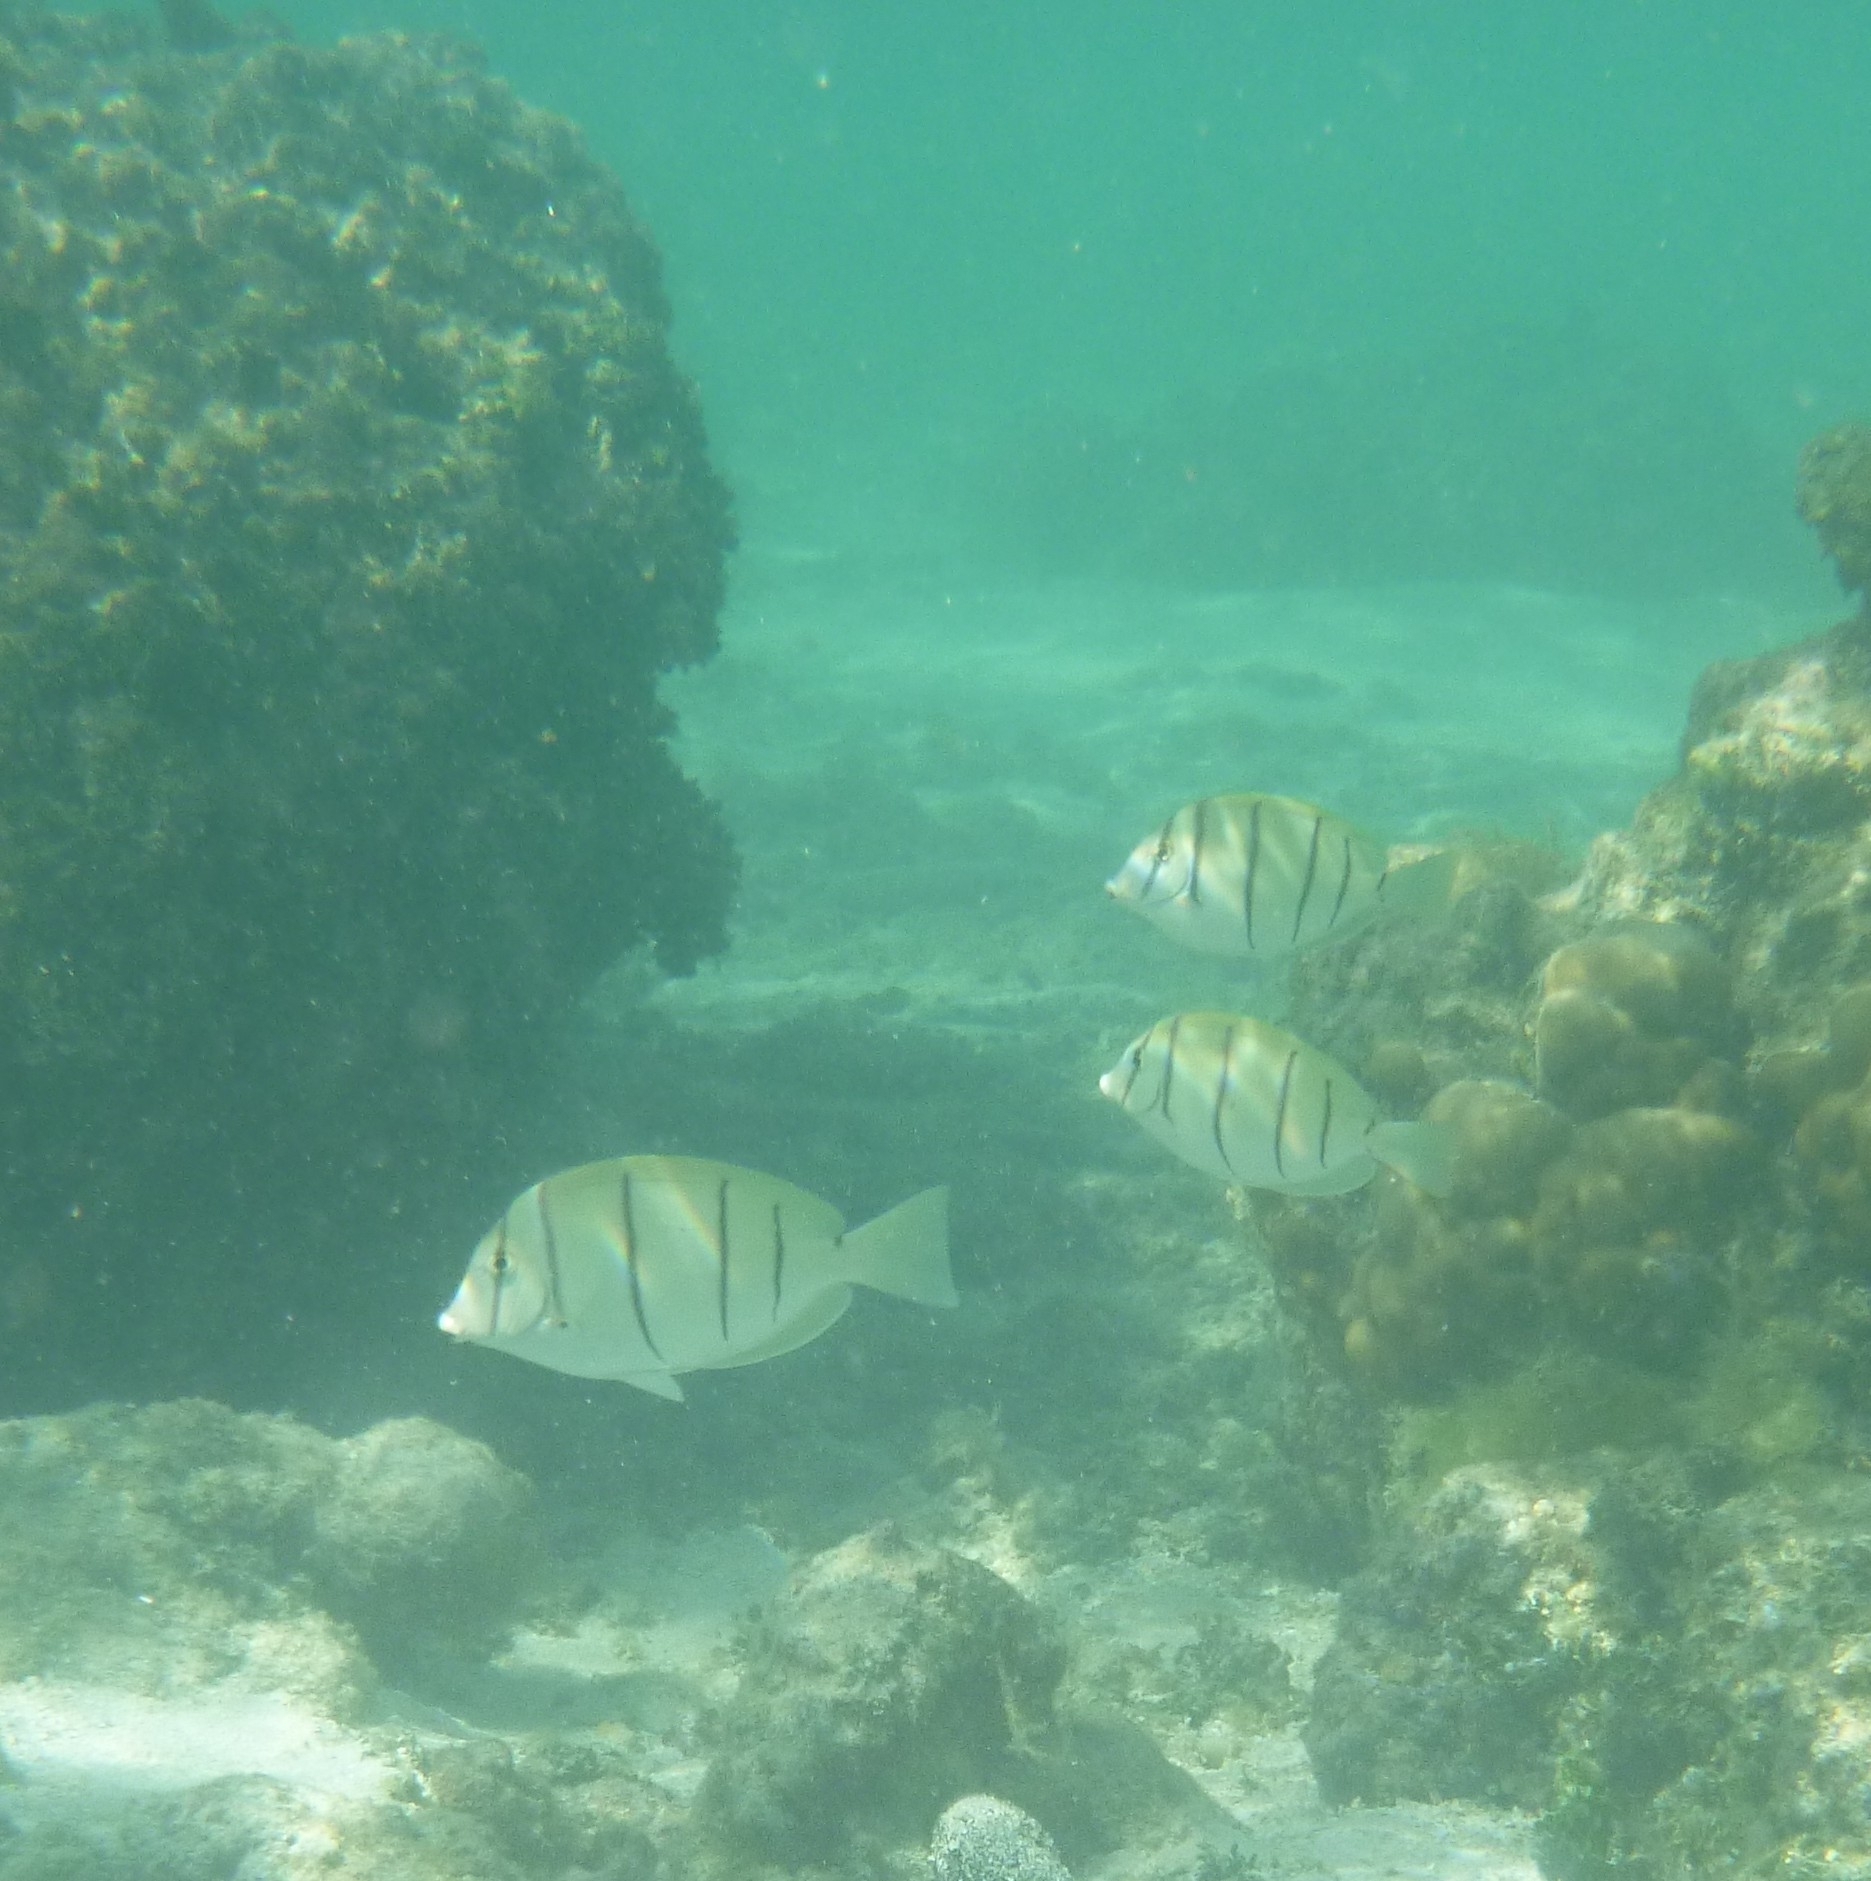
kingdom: Animalia
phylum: Chordata
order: Perciformes
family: Acanthuridae
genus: Acanthurus
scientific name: Acanthurus triostegus
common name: Convict surgeonfish
